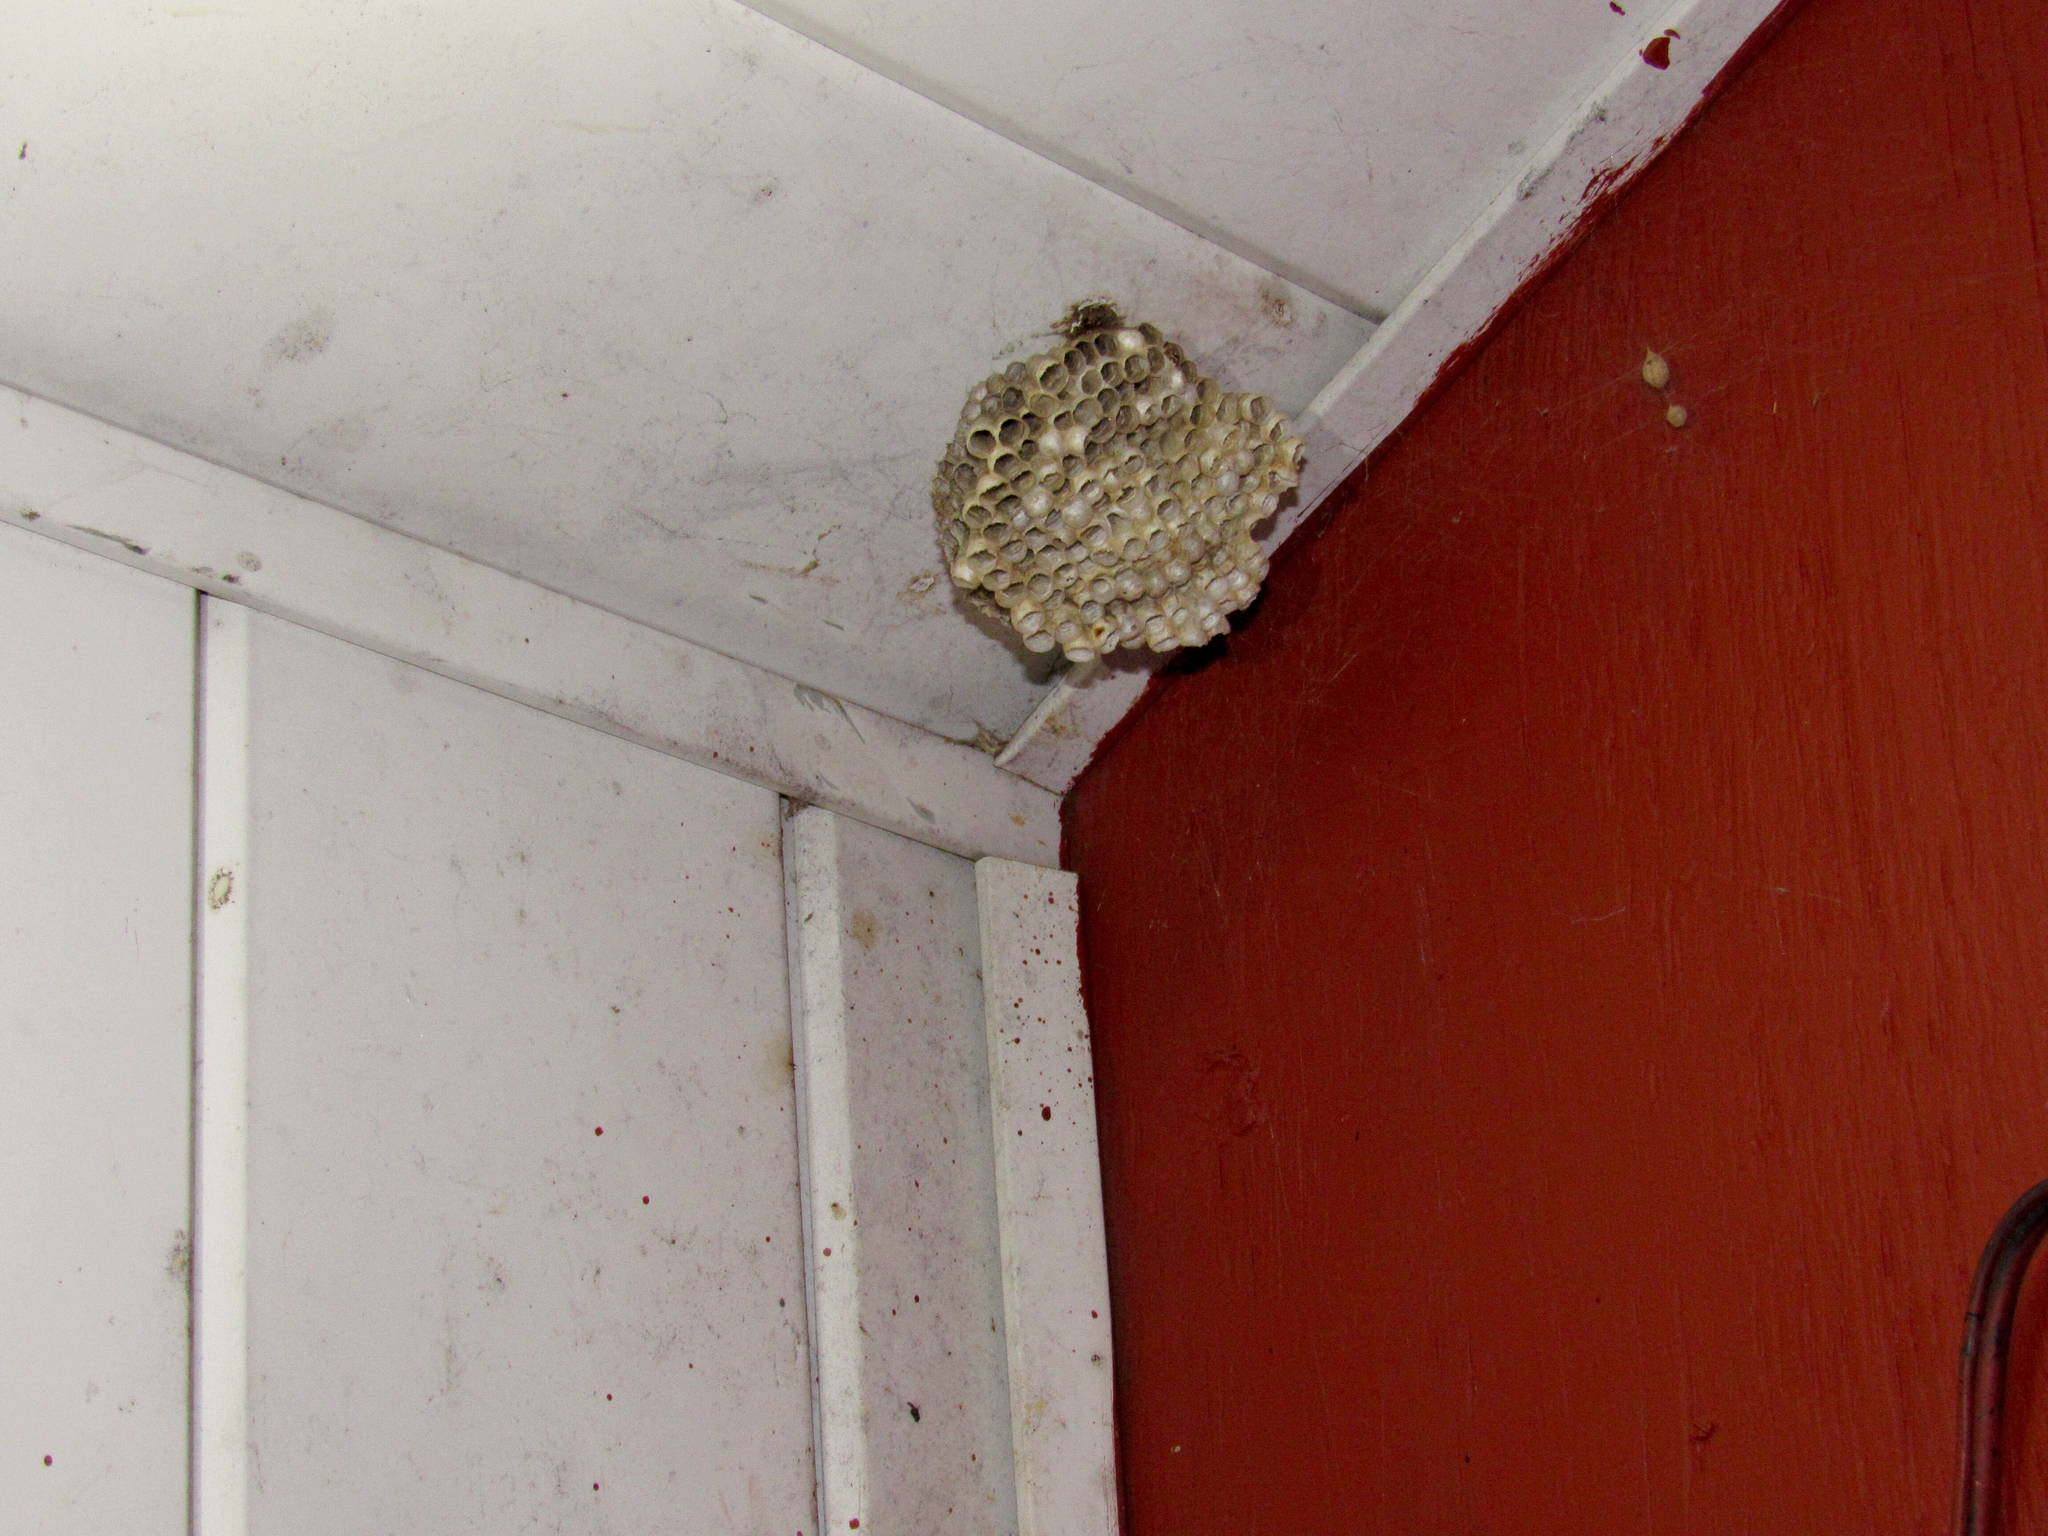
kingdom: Animalia
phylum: Arthropoda
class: Insecta
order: Hymenoptera
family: Eumenidae
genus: Polistes
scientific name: Polistes
